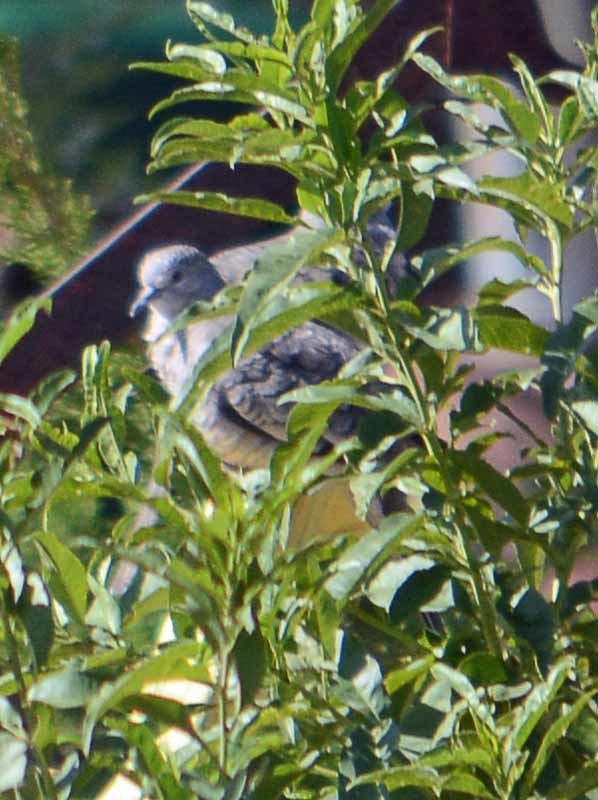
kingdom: Animalia
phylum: Chordata
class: Aves
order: Columbiformes
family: Columbidae
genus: Columbina
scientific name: Columbina inca
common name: Inca dove
